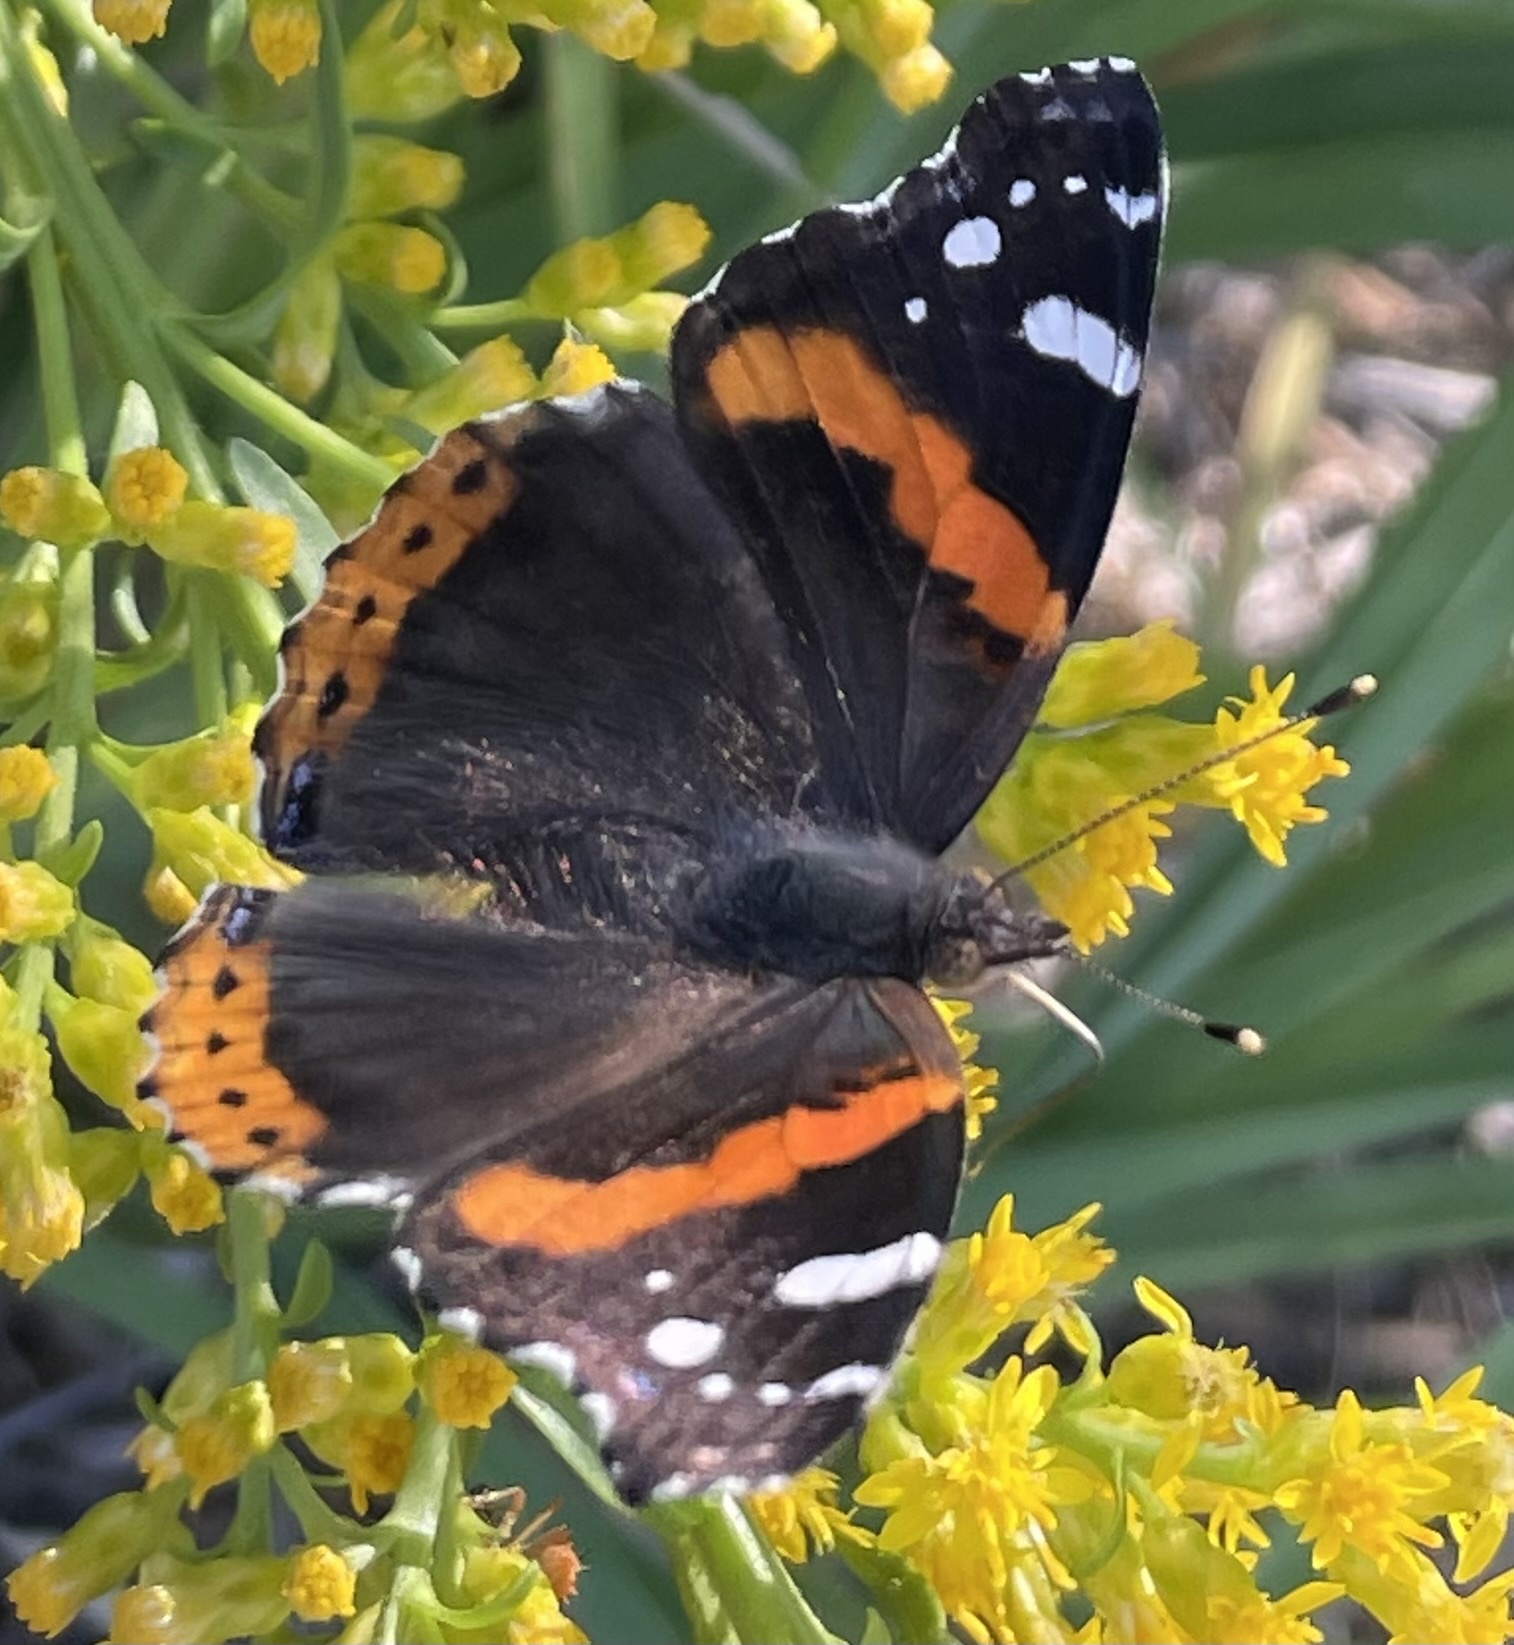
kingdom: Animalia
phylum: Arthropoda
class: Insecta
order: Lepidoptera
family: Nymphalidae
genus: Vanessa
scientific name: Vanessa atalanta
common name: Red admiral
